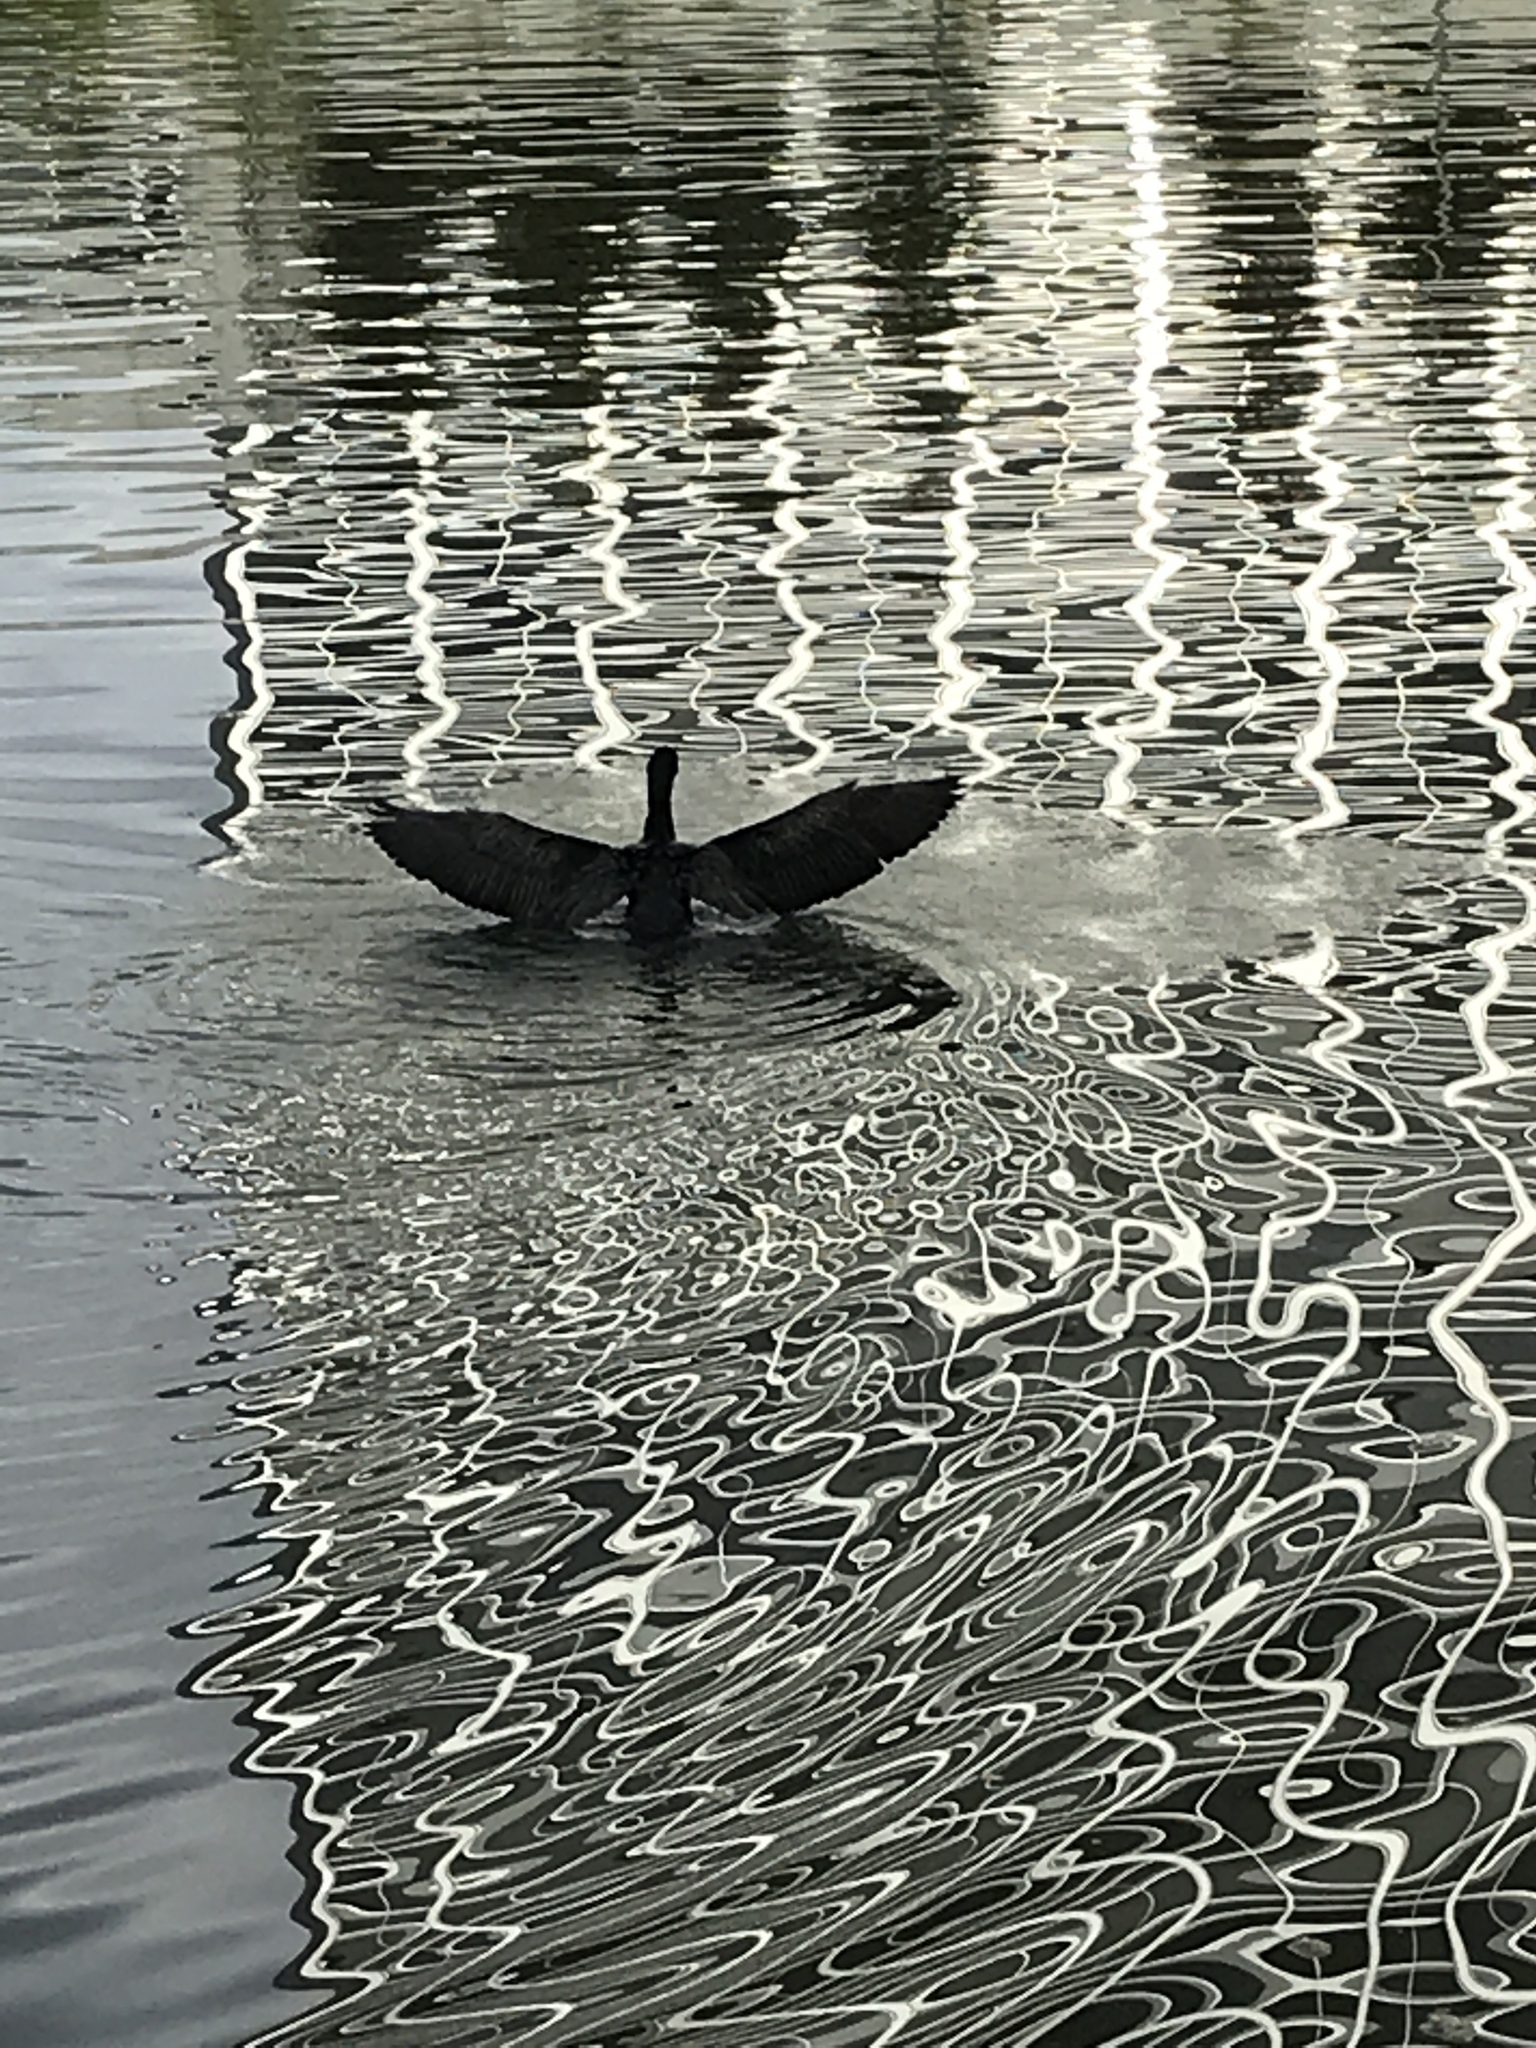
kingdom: Animalia
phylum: Chordata
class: Aves
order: Suliformes
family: Phalacrocoracidae
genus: Phalacrocorax
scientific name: Phalacrocorax auritus
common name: Double-crested cormorant
